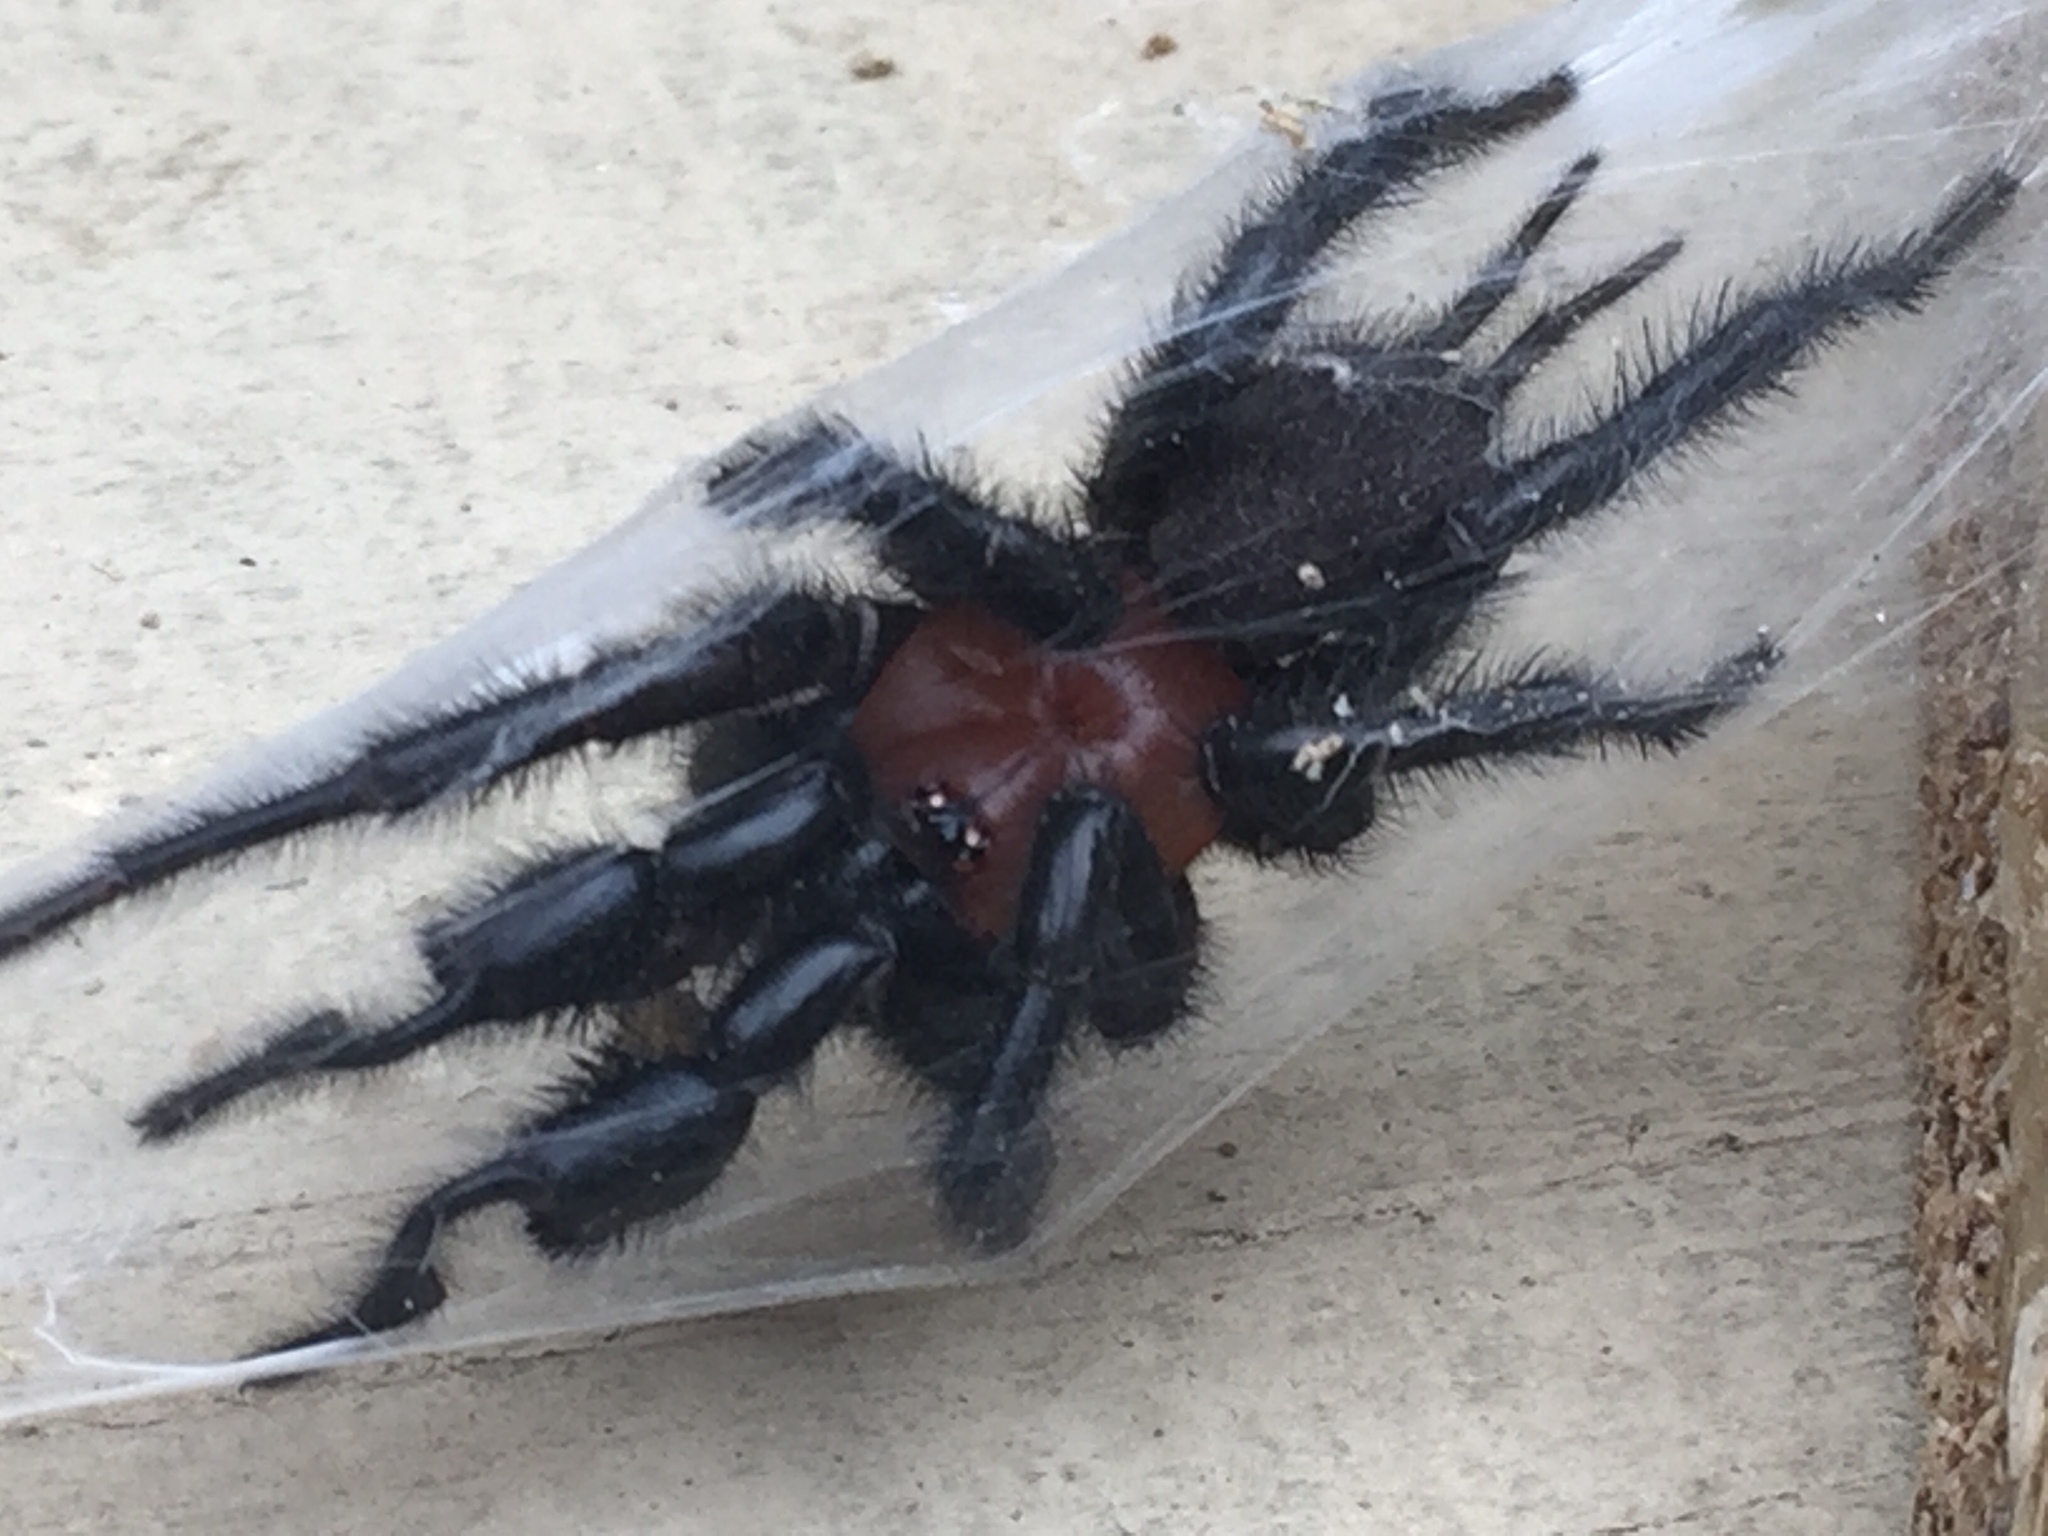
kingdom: Animalia
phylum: Arthropoda
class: Arachnida
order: Araneae
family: Porrhothelidae
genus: Porrhothele
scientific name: Porrhothele antipodiana
